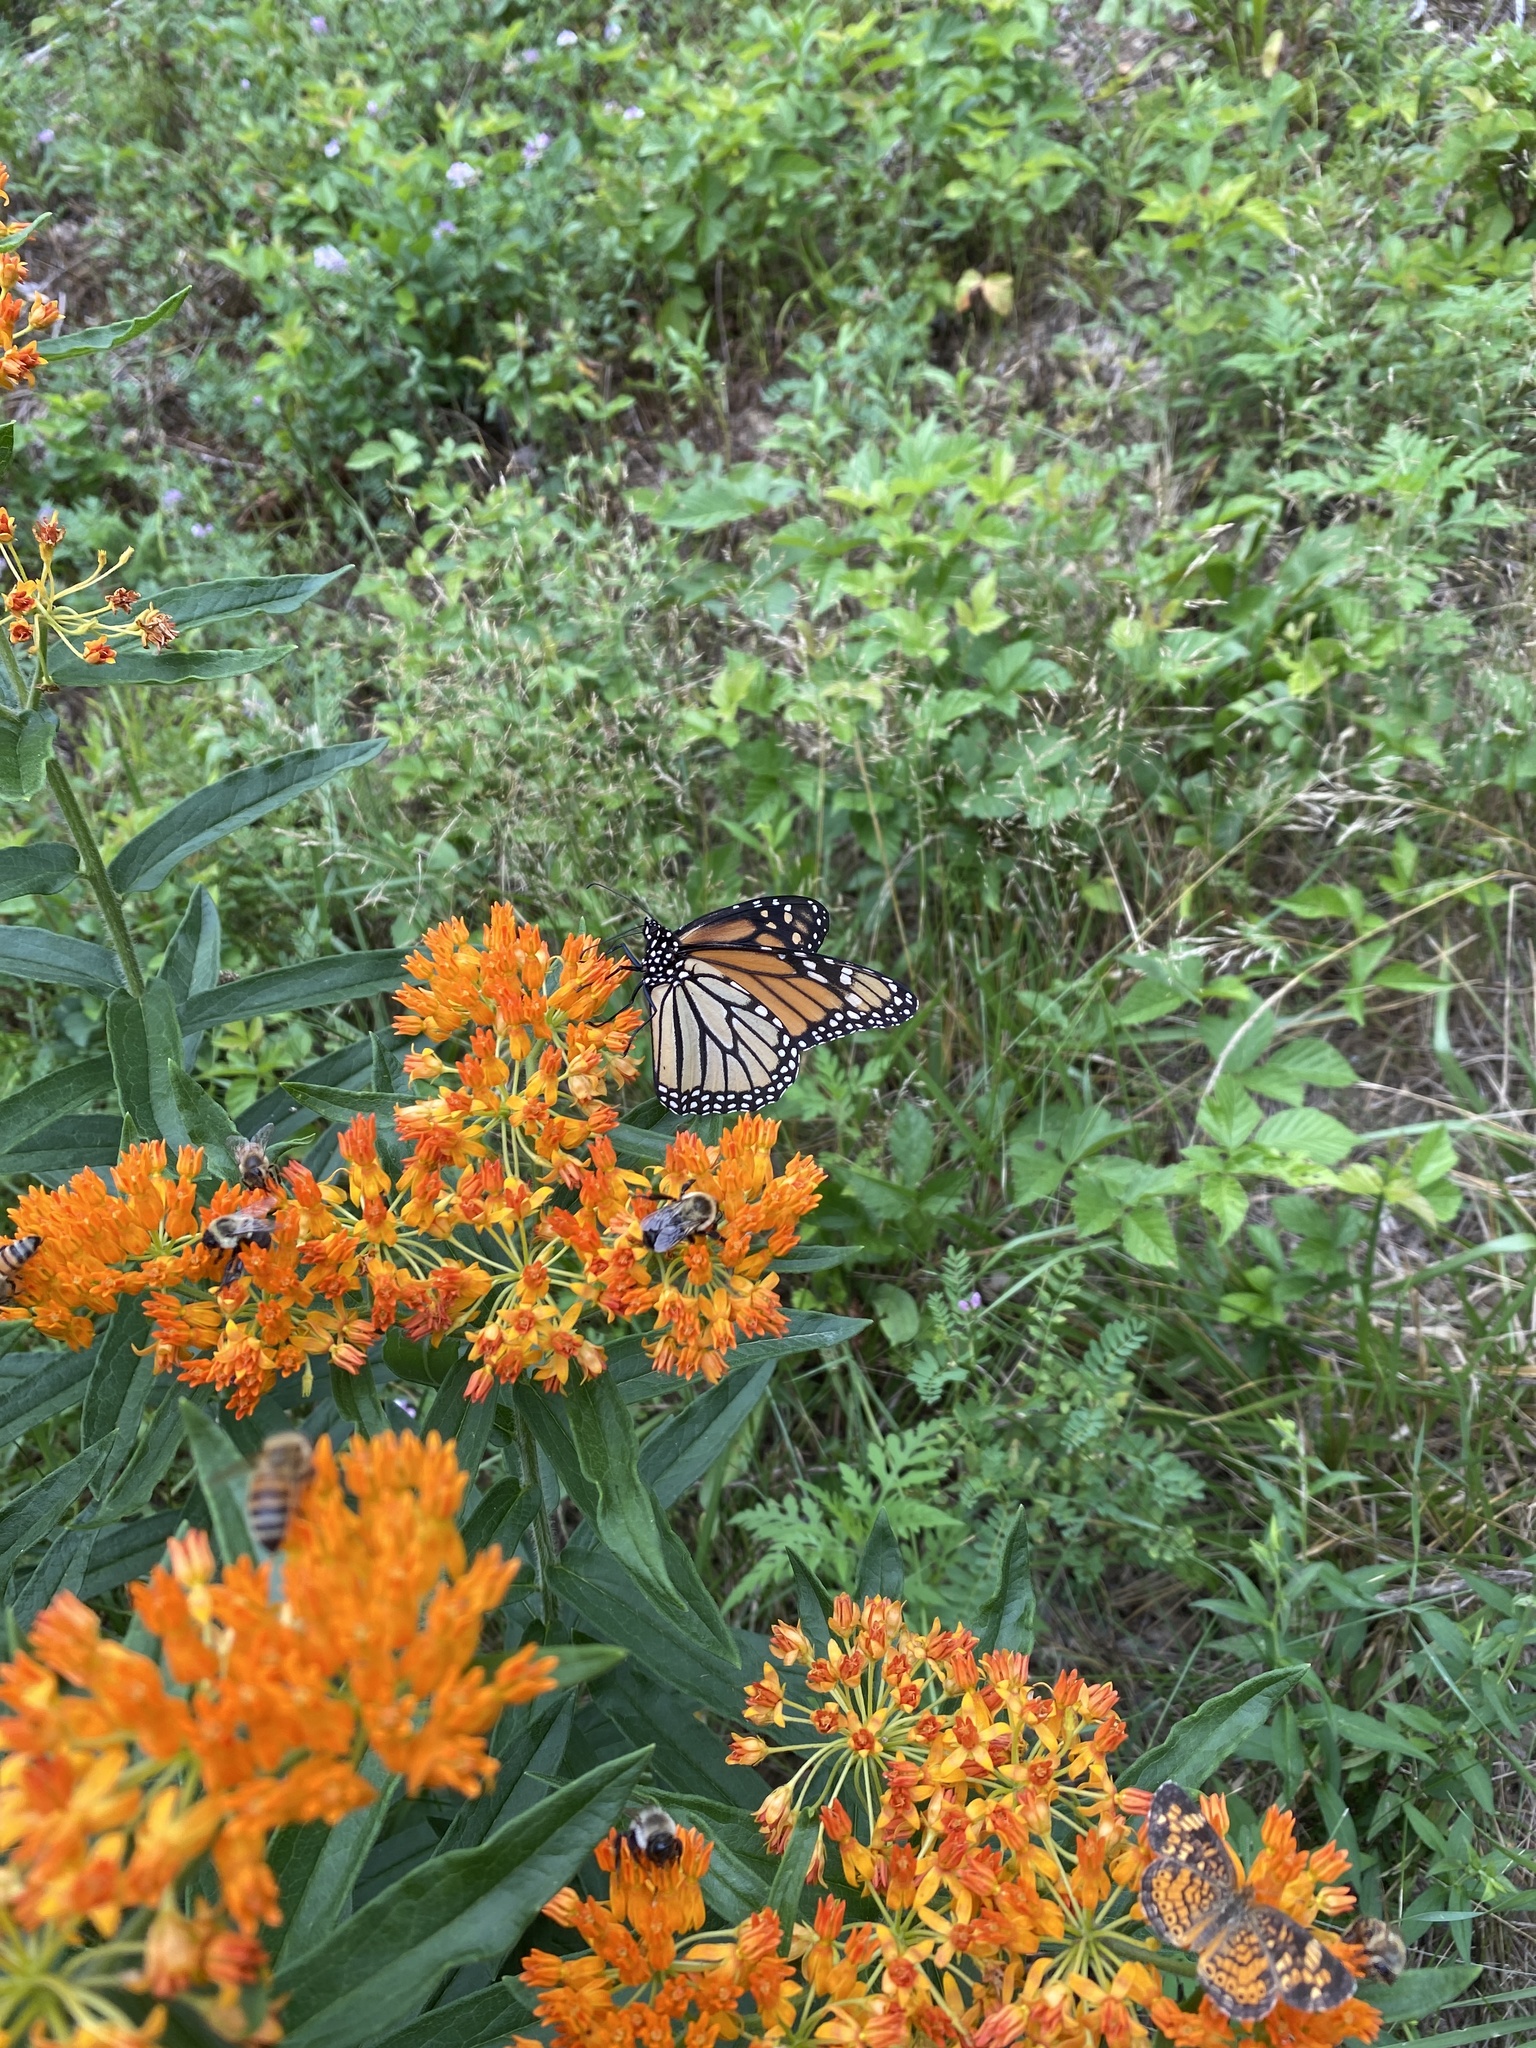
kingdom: Animalia
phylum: Arthropoda
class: Insecta
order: Lepidoptera
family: Nymphalidae
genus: Danaus
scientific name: Danaus plexippus
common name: Monarch
